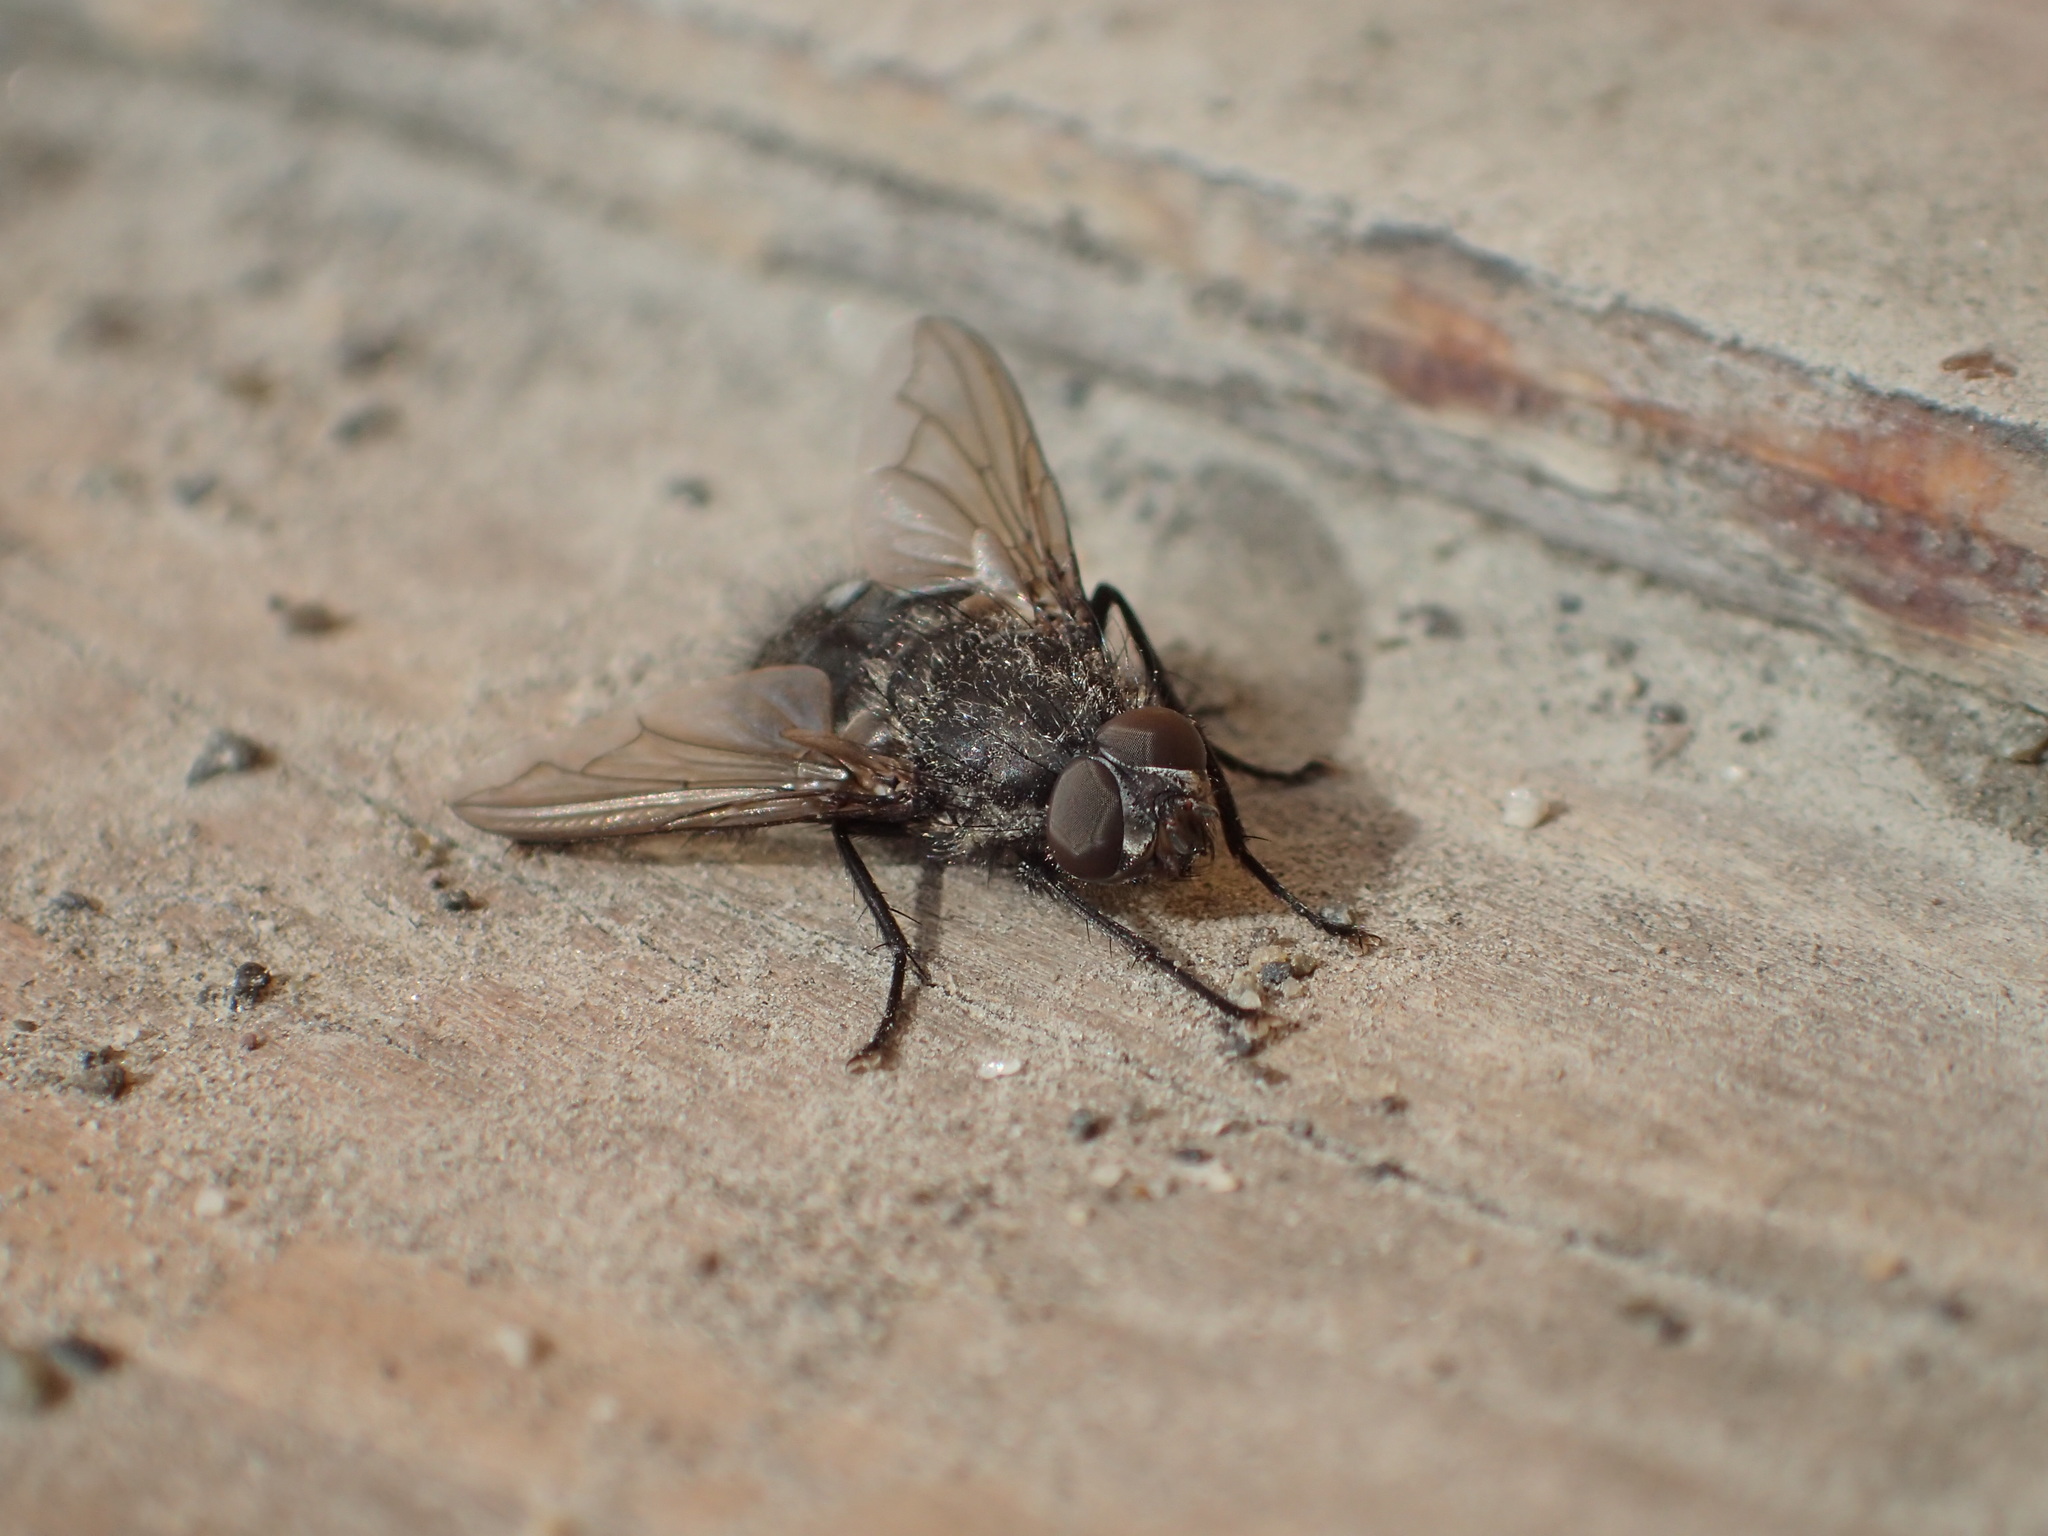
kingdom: Animalia
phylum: Arthropoda
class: Insecta
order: Diptera
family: Polleniidae
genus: Pollenia
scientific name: Pollenia vagabunda
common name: Vagabund cluster fly
